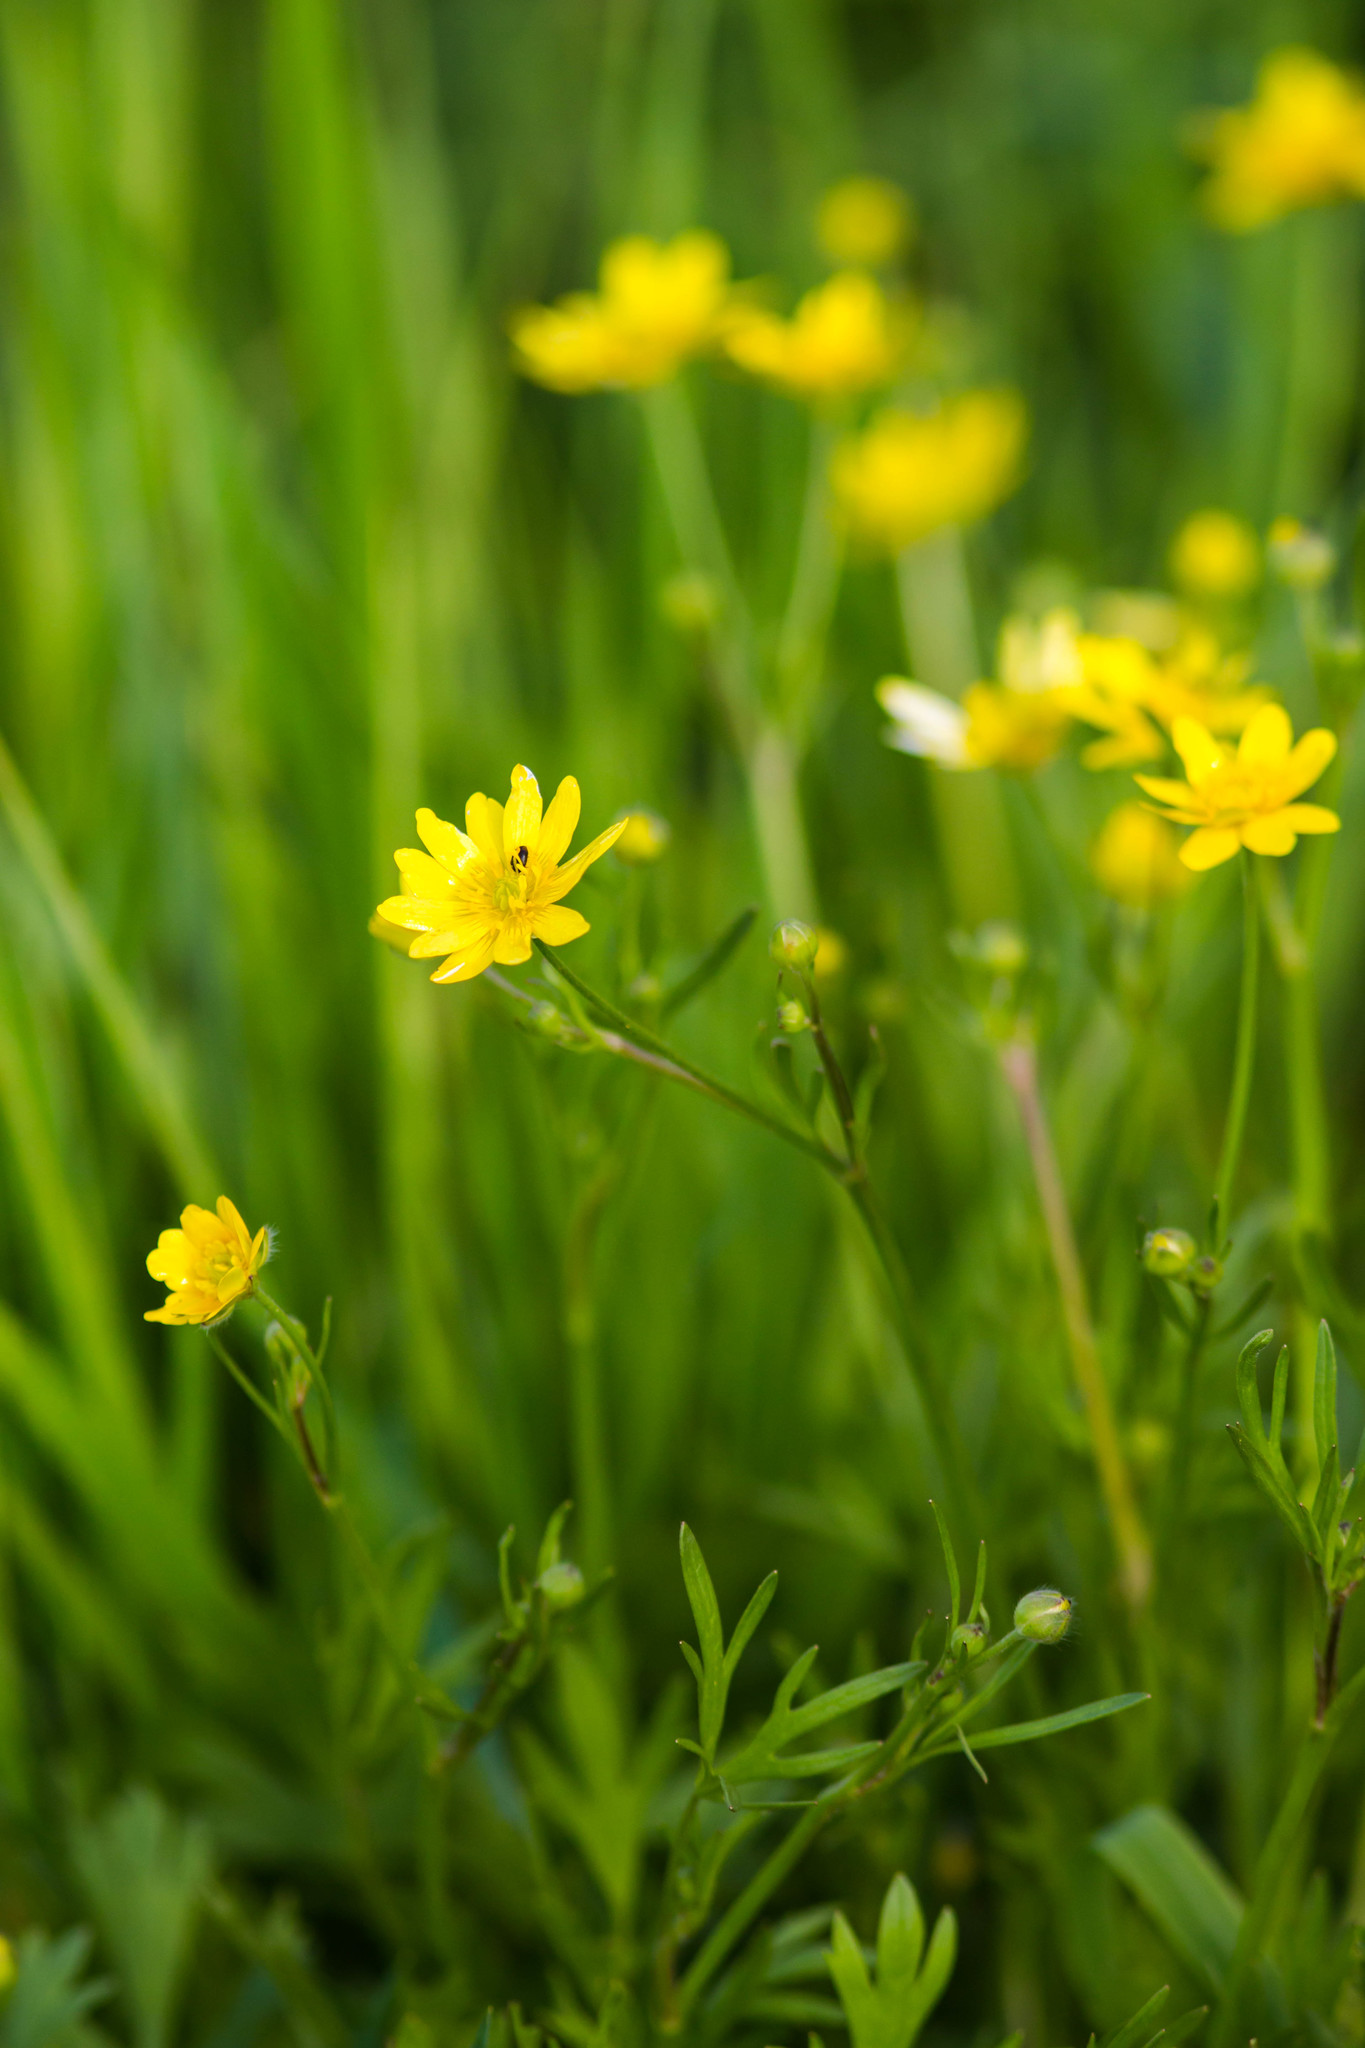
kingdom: Plantae
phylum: Tracheophyta
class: Magnoliopsida
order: Ranunculales
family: Ranunculaceae
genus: Ranunculus
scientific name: Ranunculus californicus
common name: California buttercup
